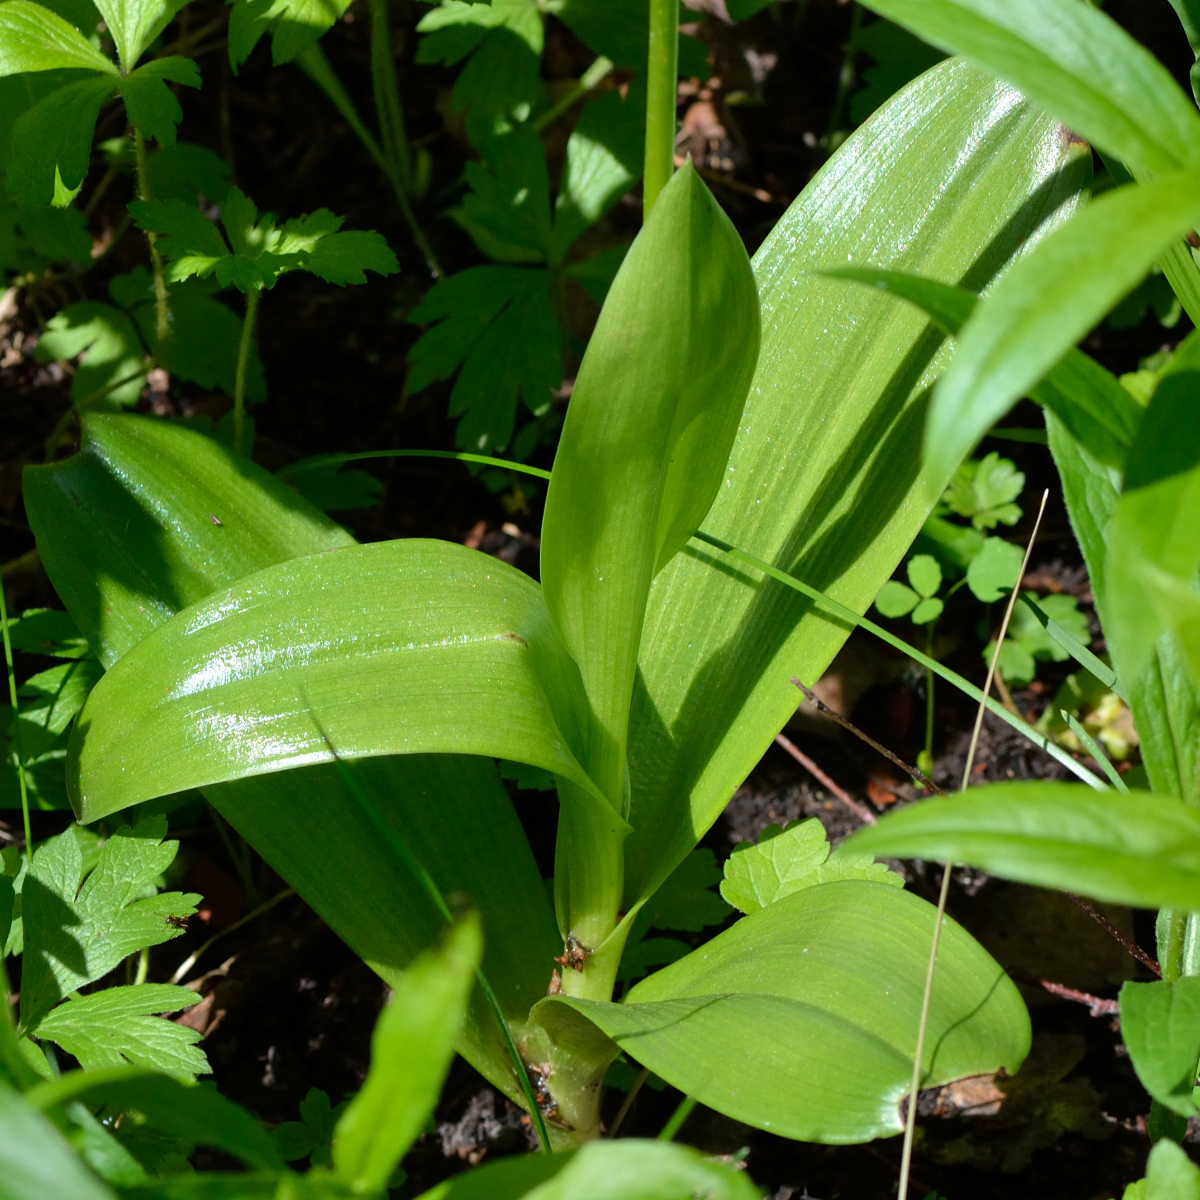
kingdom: Plantae
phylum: Tracheophyta
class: Liliopsida
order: Asparagales
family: Orchidaceae
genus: Orchis
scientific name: Orchis militaris
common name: Military orchid
